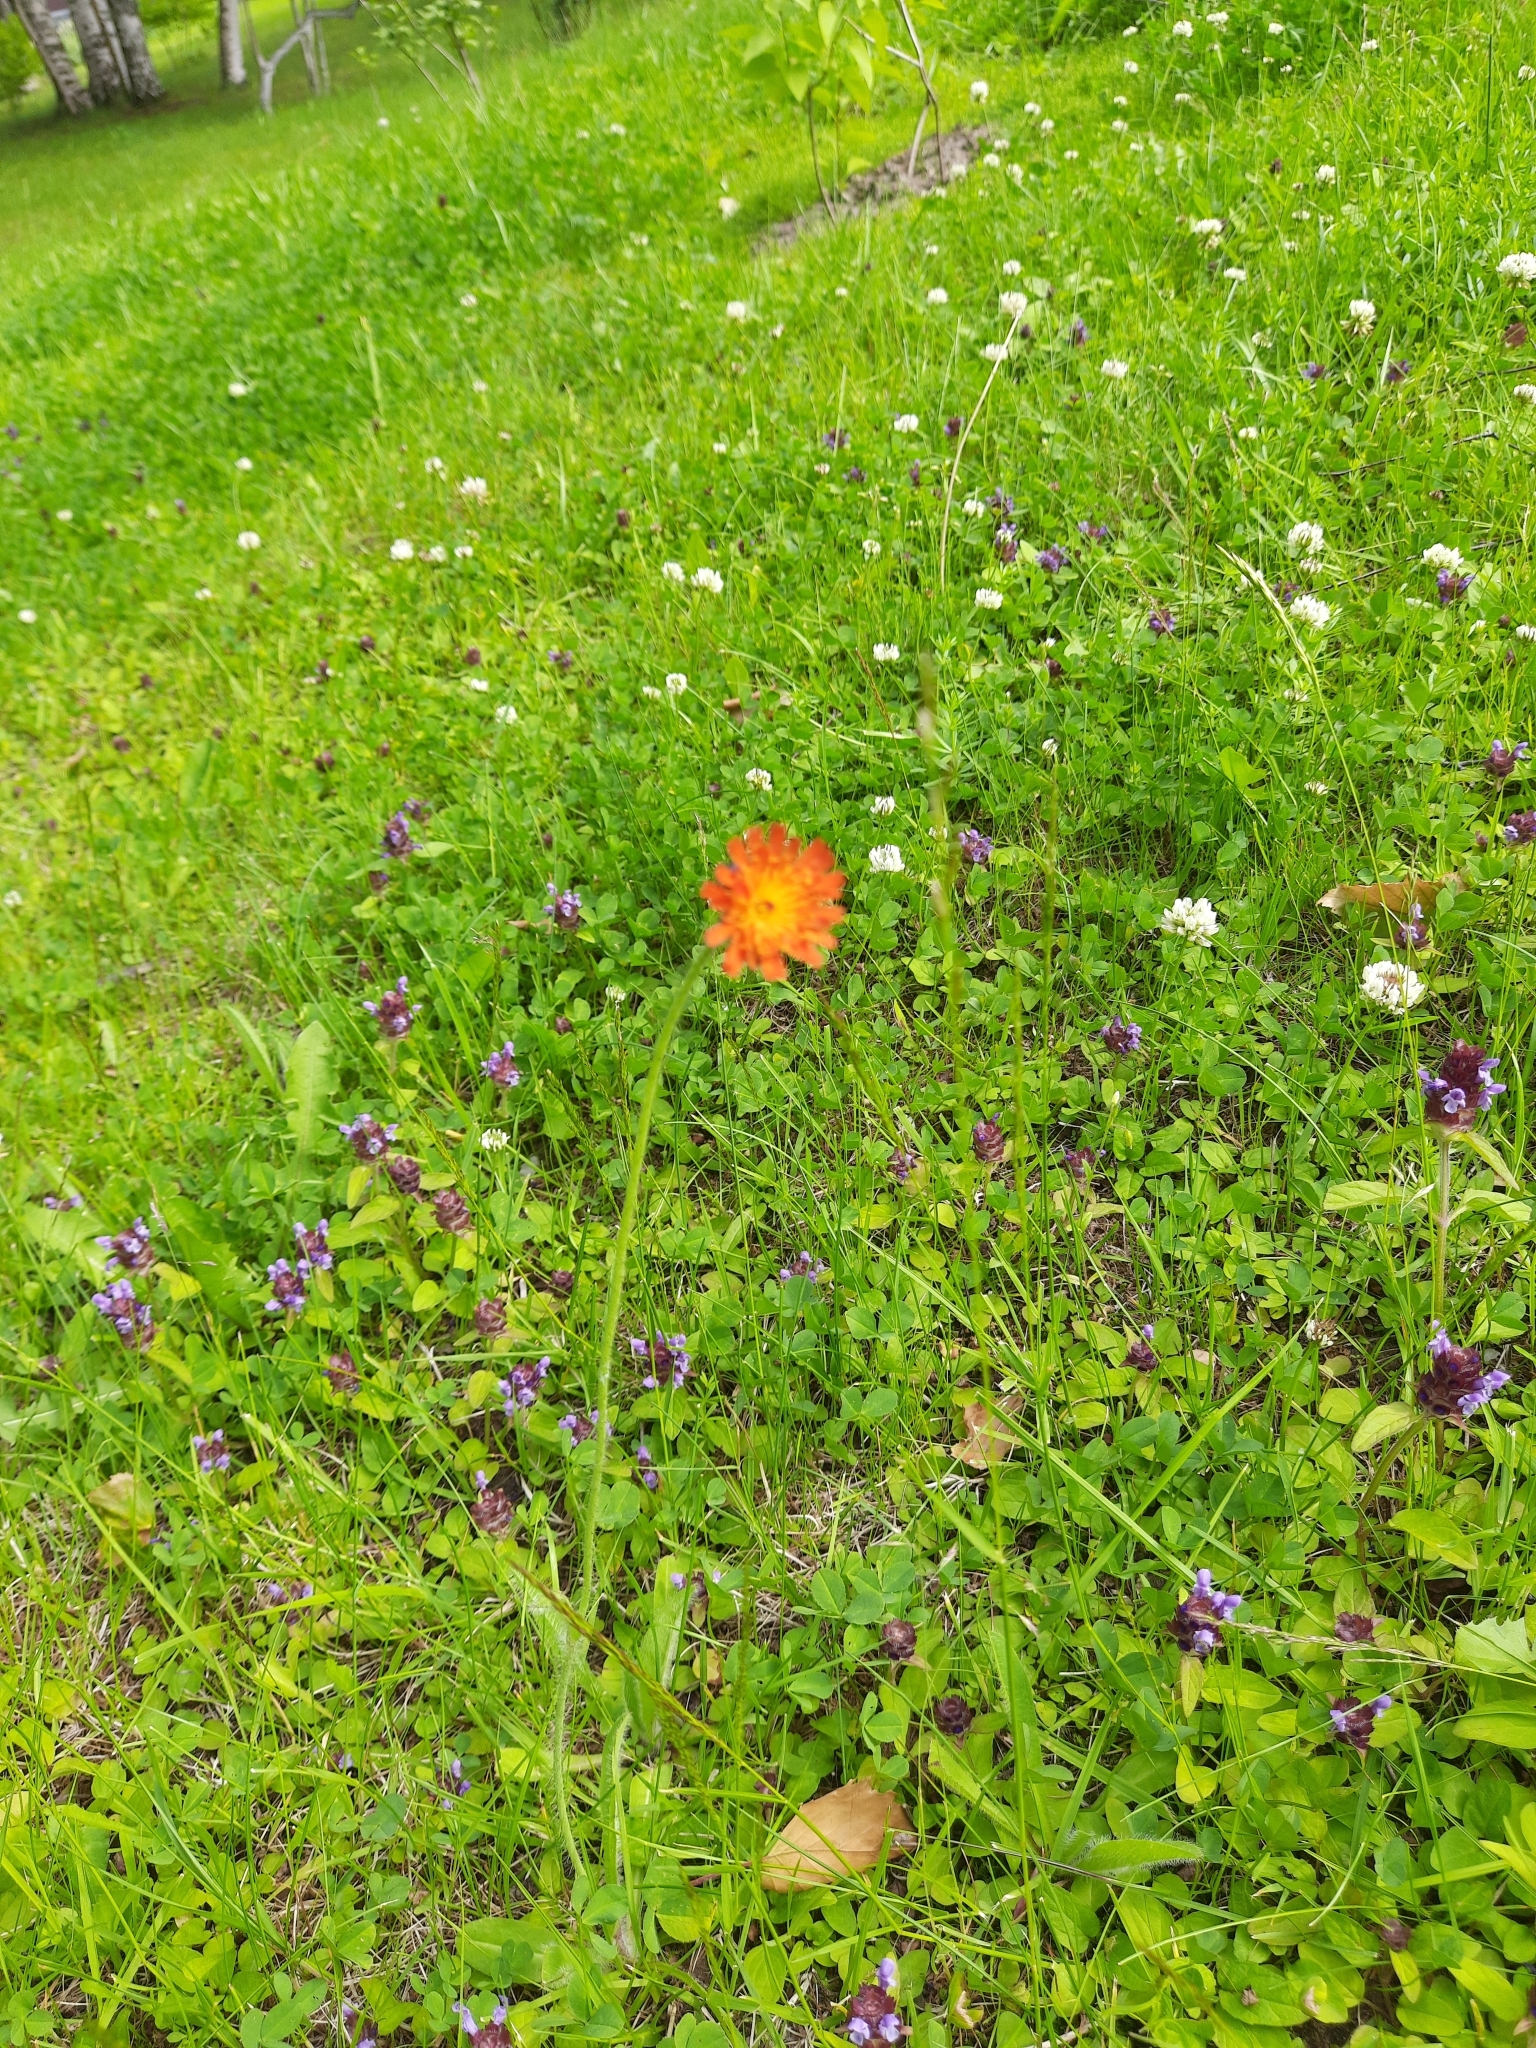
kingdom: Plantae
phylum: Tracheophyta
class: Magnoliopsida
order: Asterales
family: Asteraceae
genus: Pilosella
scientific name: Pilosella aurantiaca
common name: Fox-and-cubs
